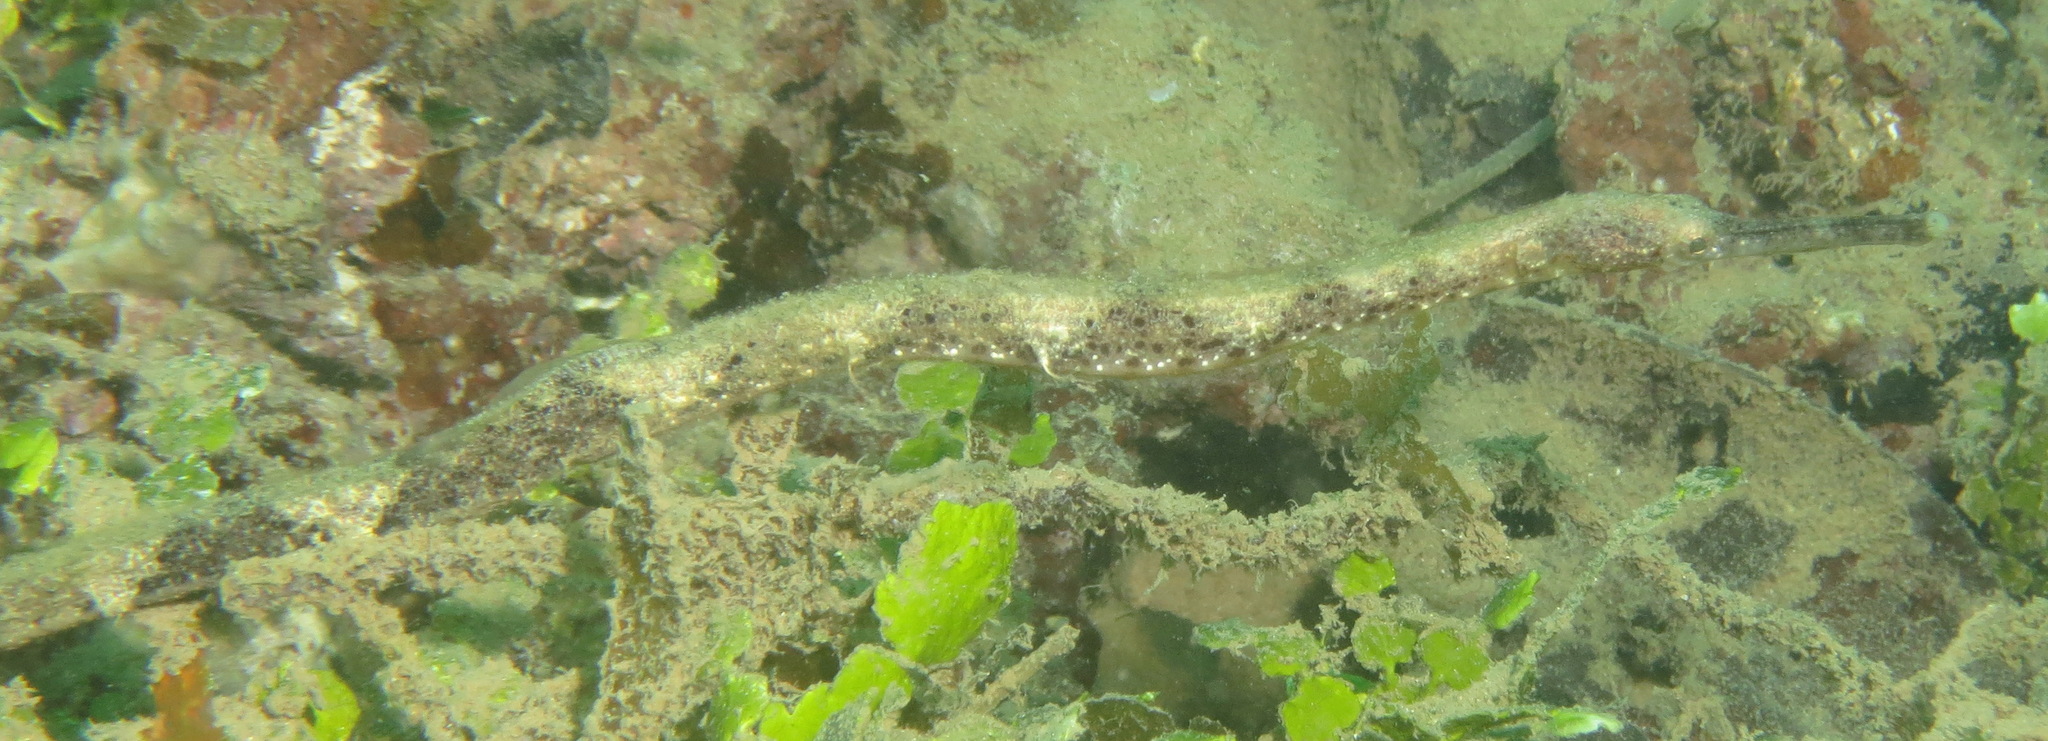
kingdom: Animalia
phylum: Chordata
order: Syngnathiformes
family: Syngnathidae
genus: Trachyrhamphus
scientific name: Trachyrhamphus bicoarctatus
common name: Double-ended pipefish
